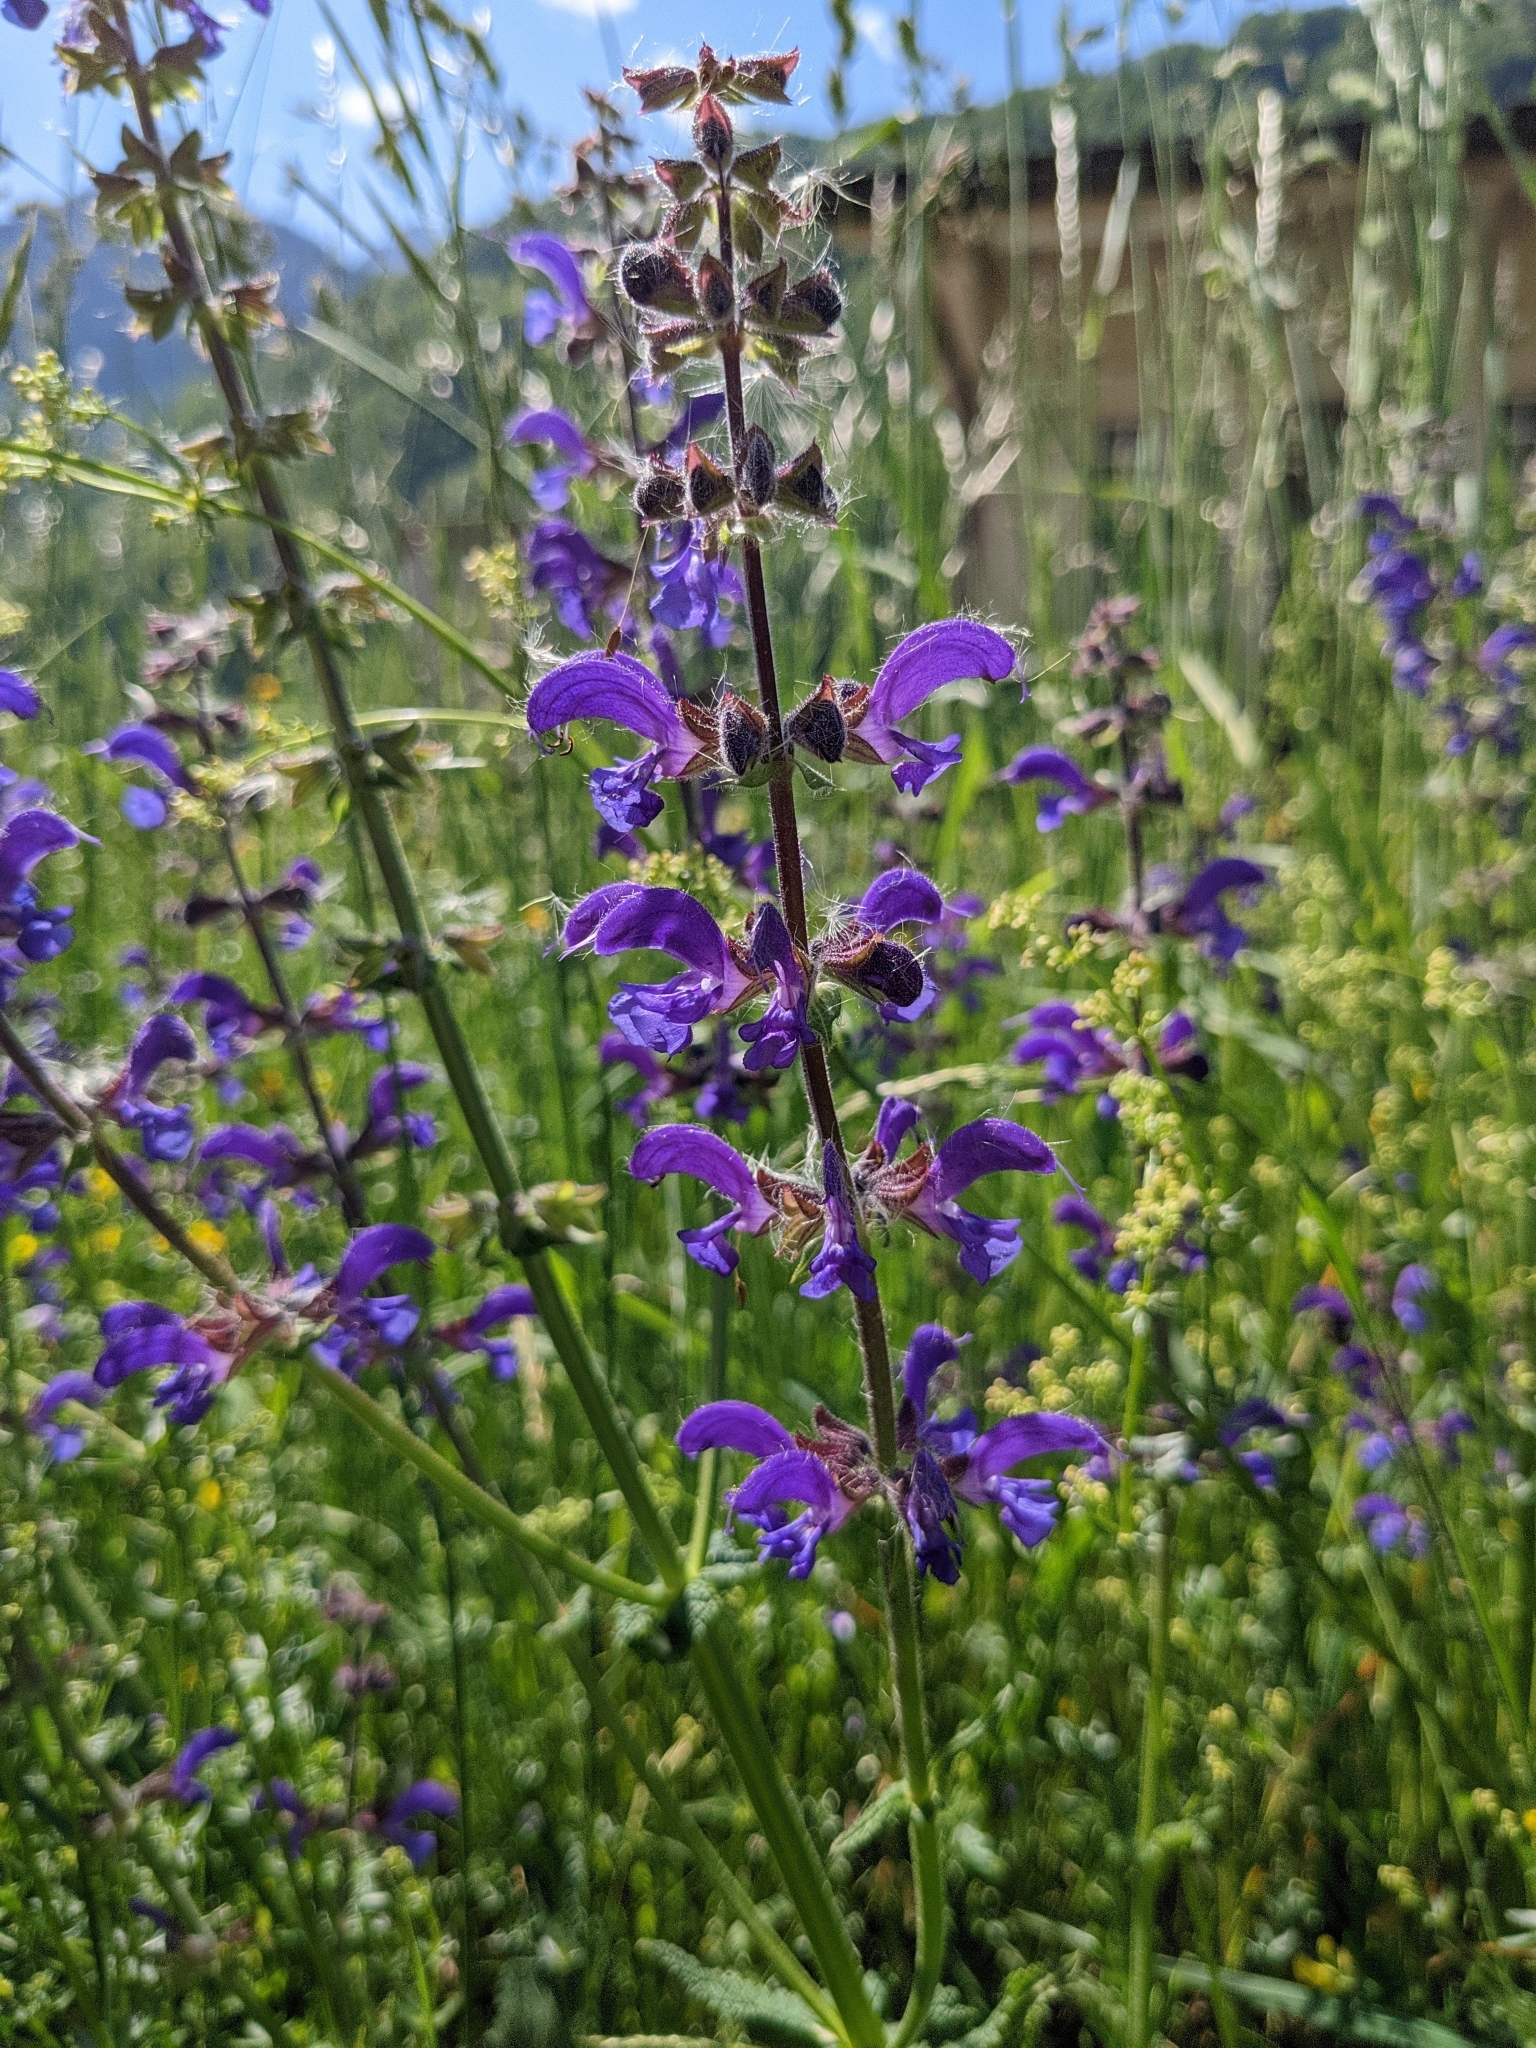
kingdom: Plantae
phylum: Tracheophyta
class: Magnoliopsida
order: Lamiales
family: Lamiaceae
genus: Salvia
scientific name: Salvia pratensis
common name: Meadow sage
